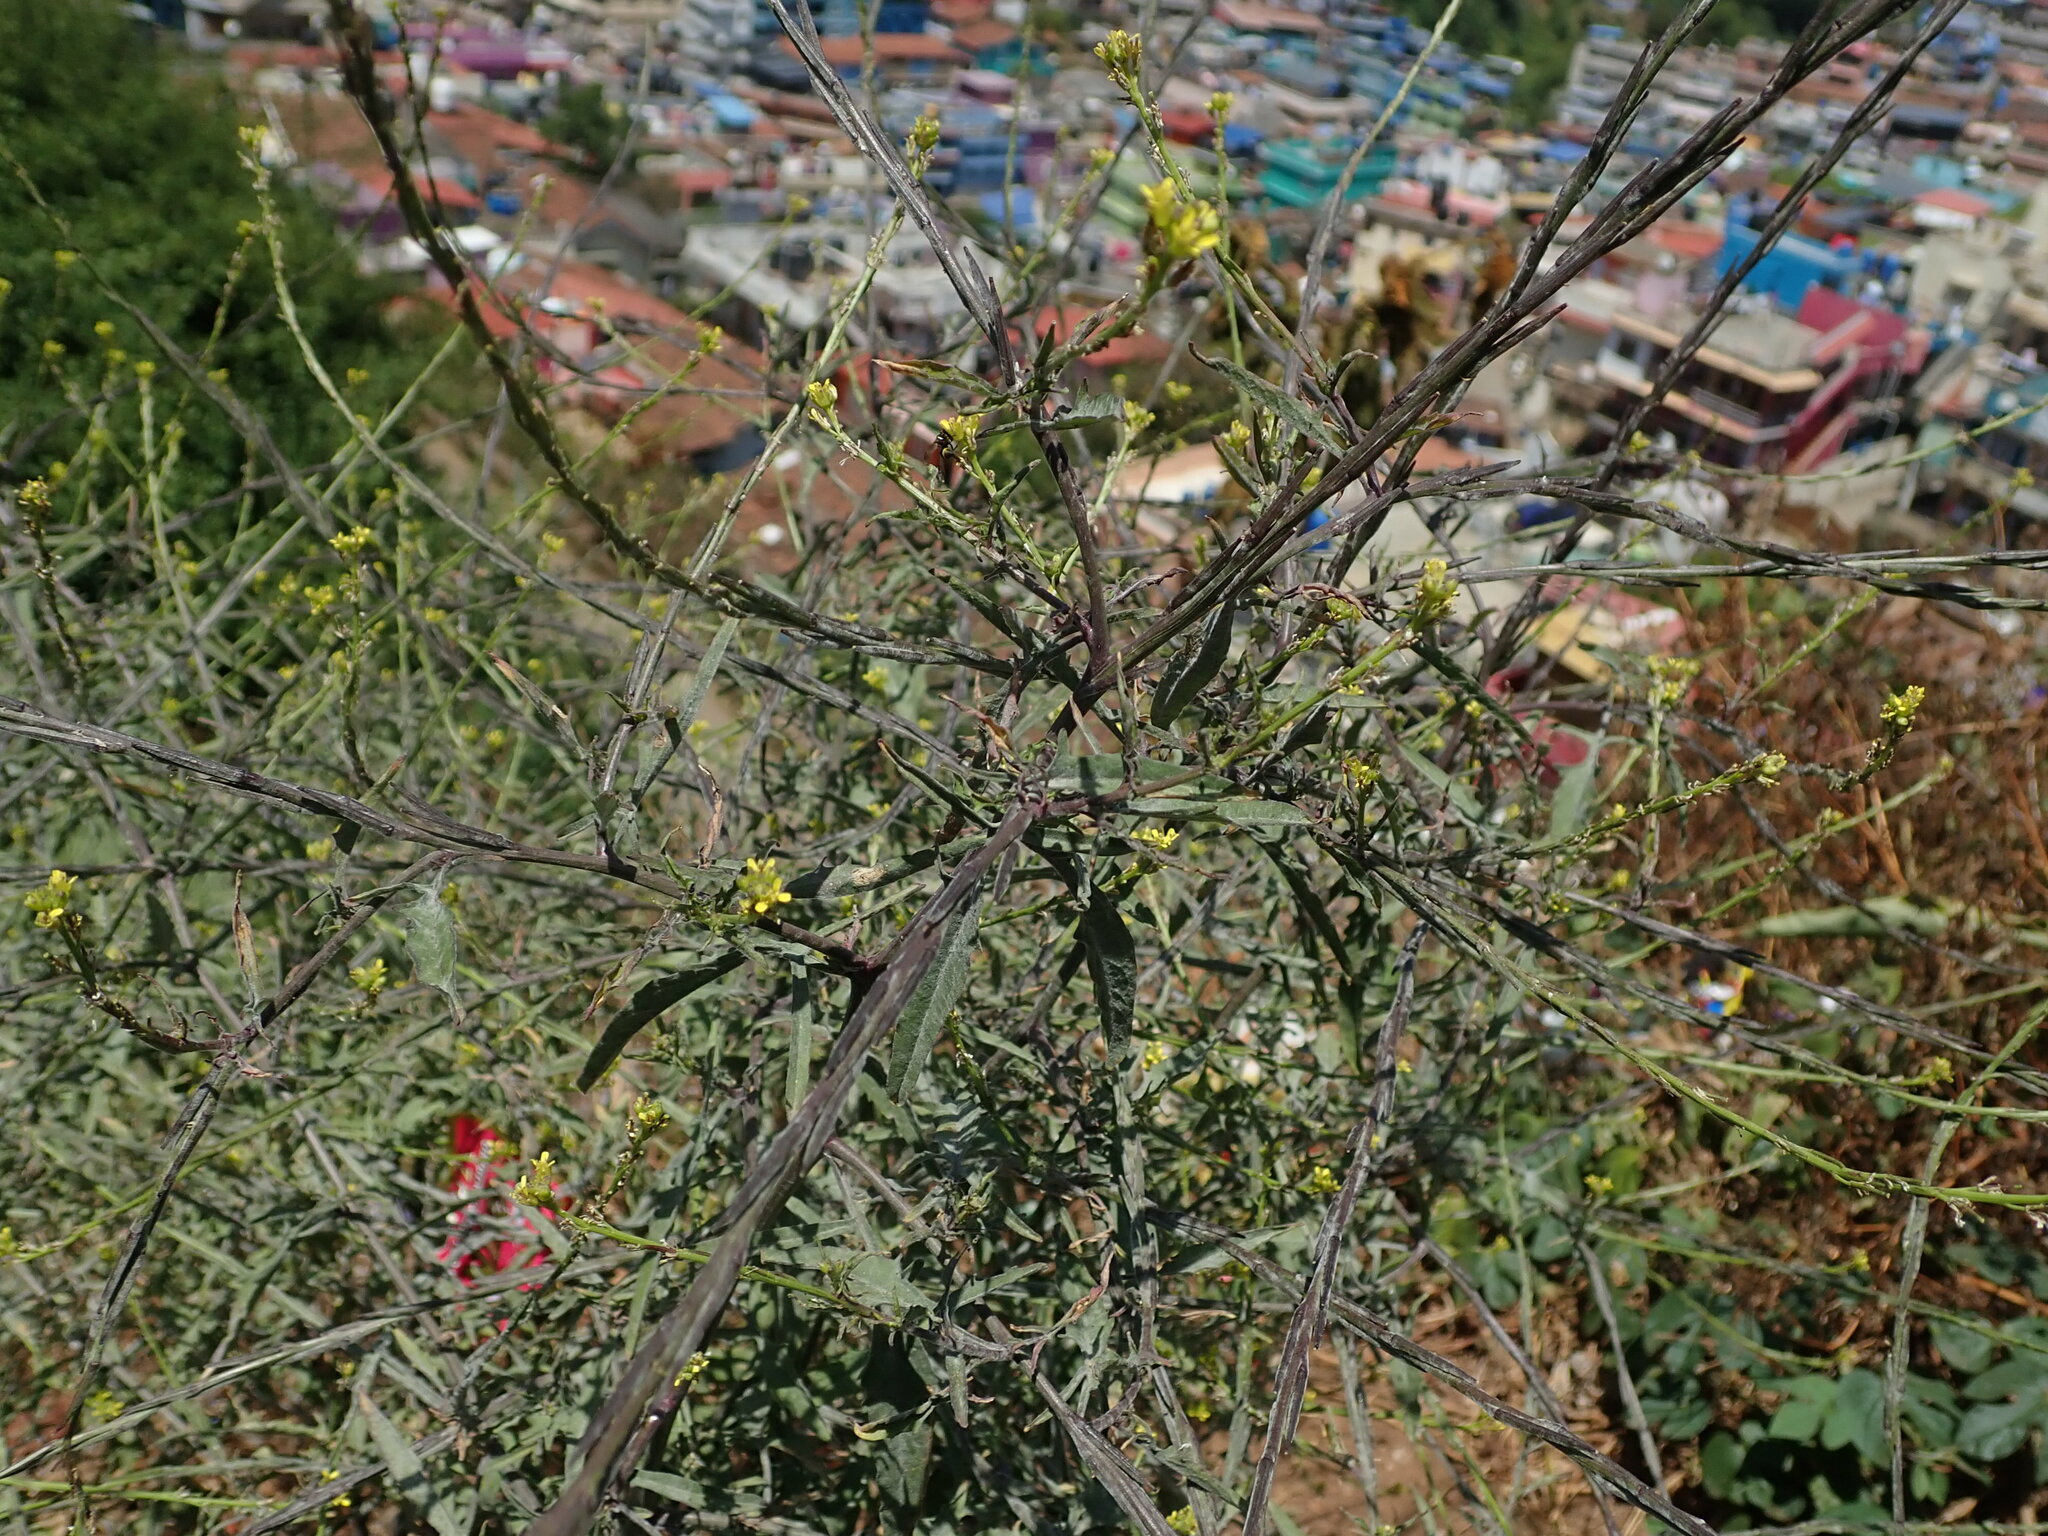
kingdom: Plantae
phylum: Tracheophyta
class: Magnoliopsida
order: Brassicales
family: Brassicaceae
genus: Sisymbrium
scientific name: Sisymbrium officinale
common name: Hedge mustard
